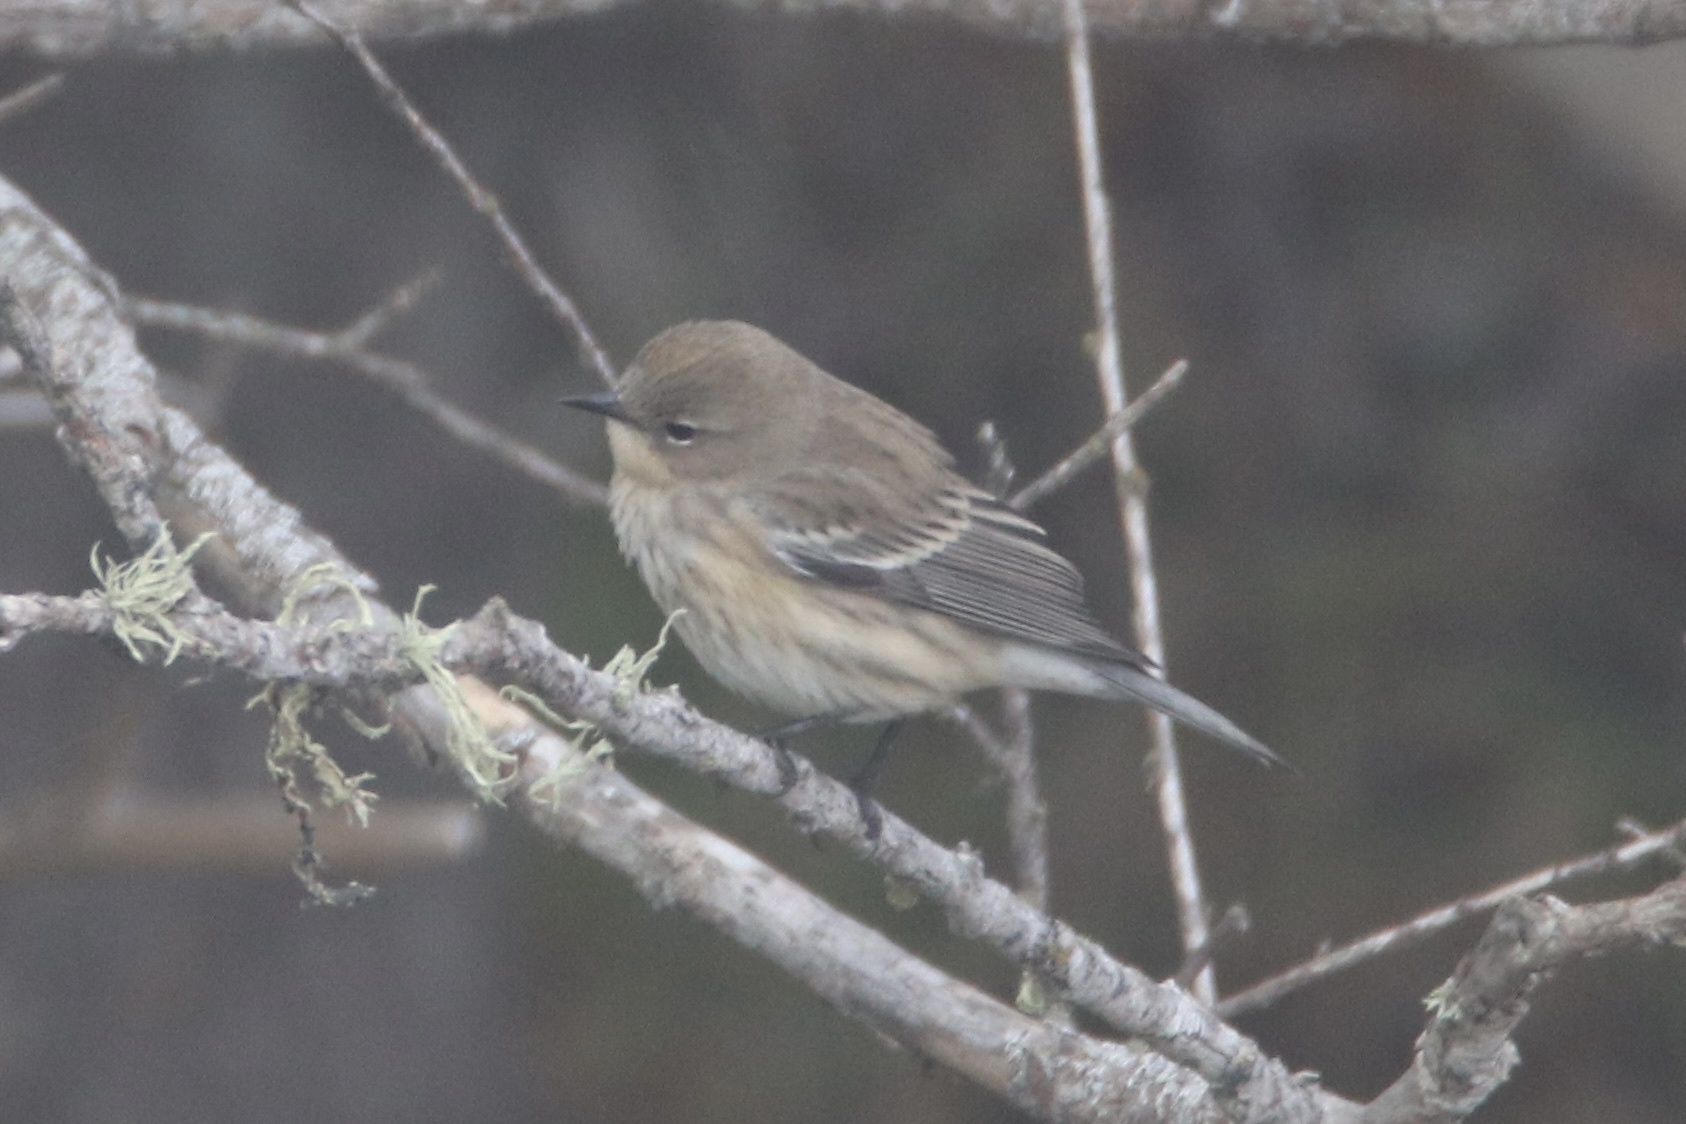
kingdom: Animalia
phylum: Chordata
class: Aves
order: Passeriformes
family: Parulidae
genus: Setophaga
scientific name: Setophaga coronata
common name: Myrtle warbler
